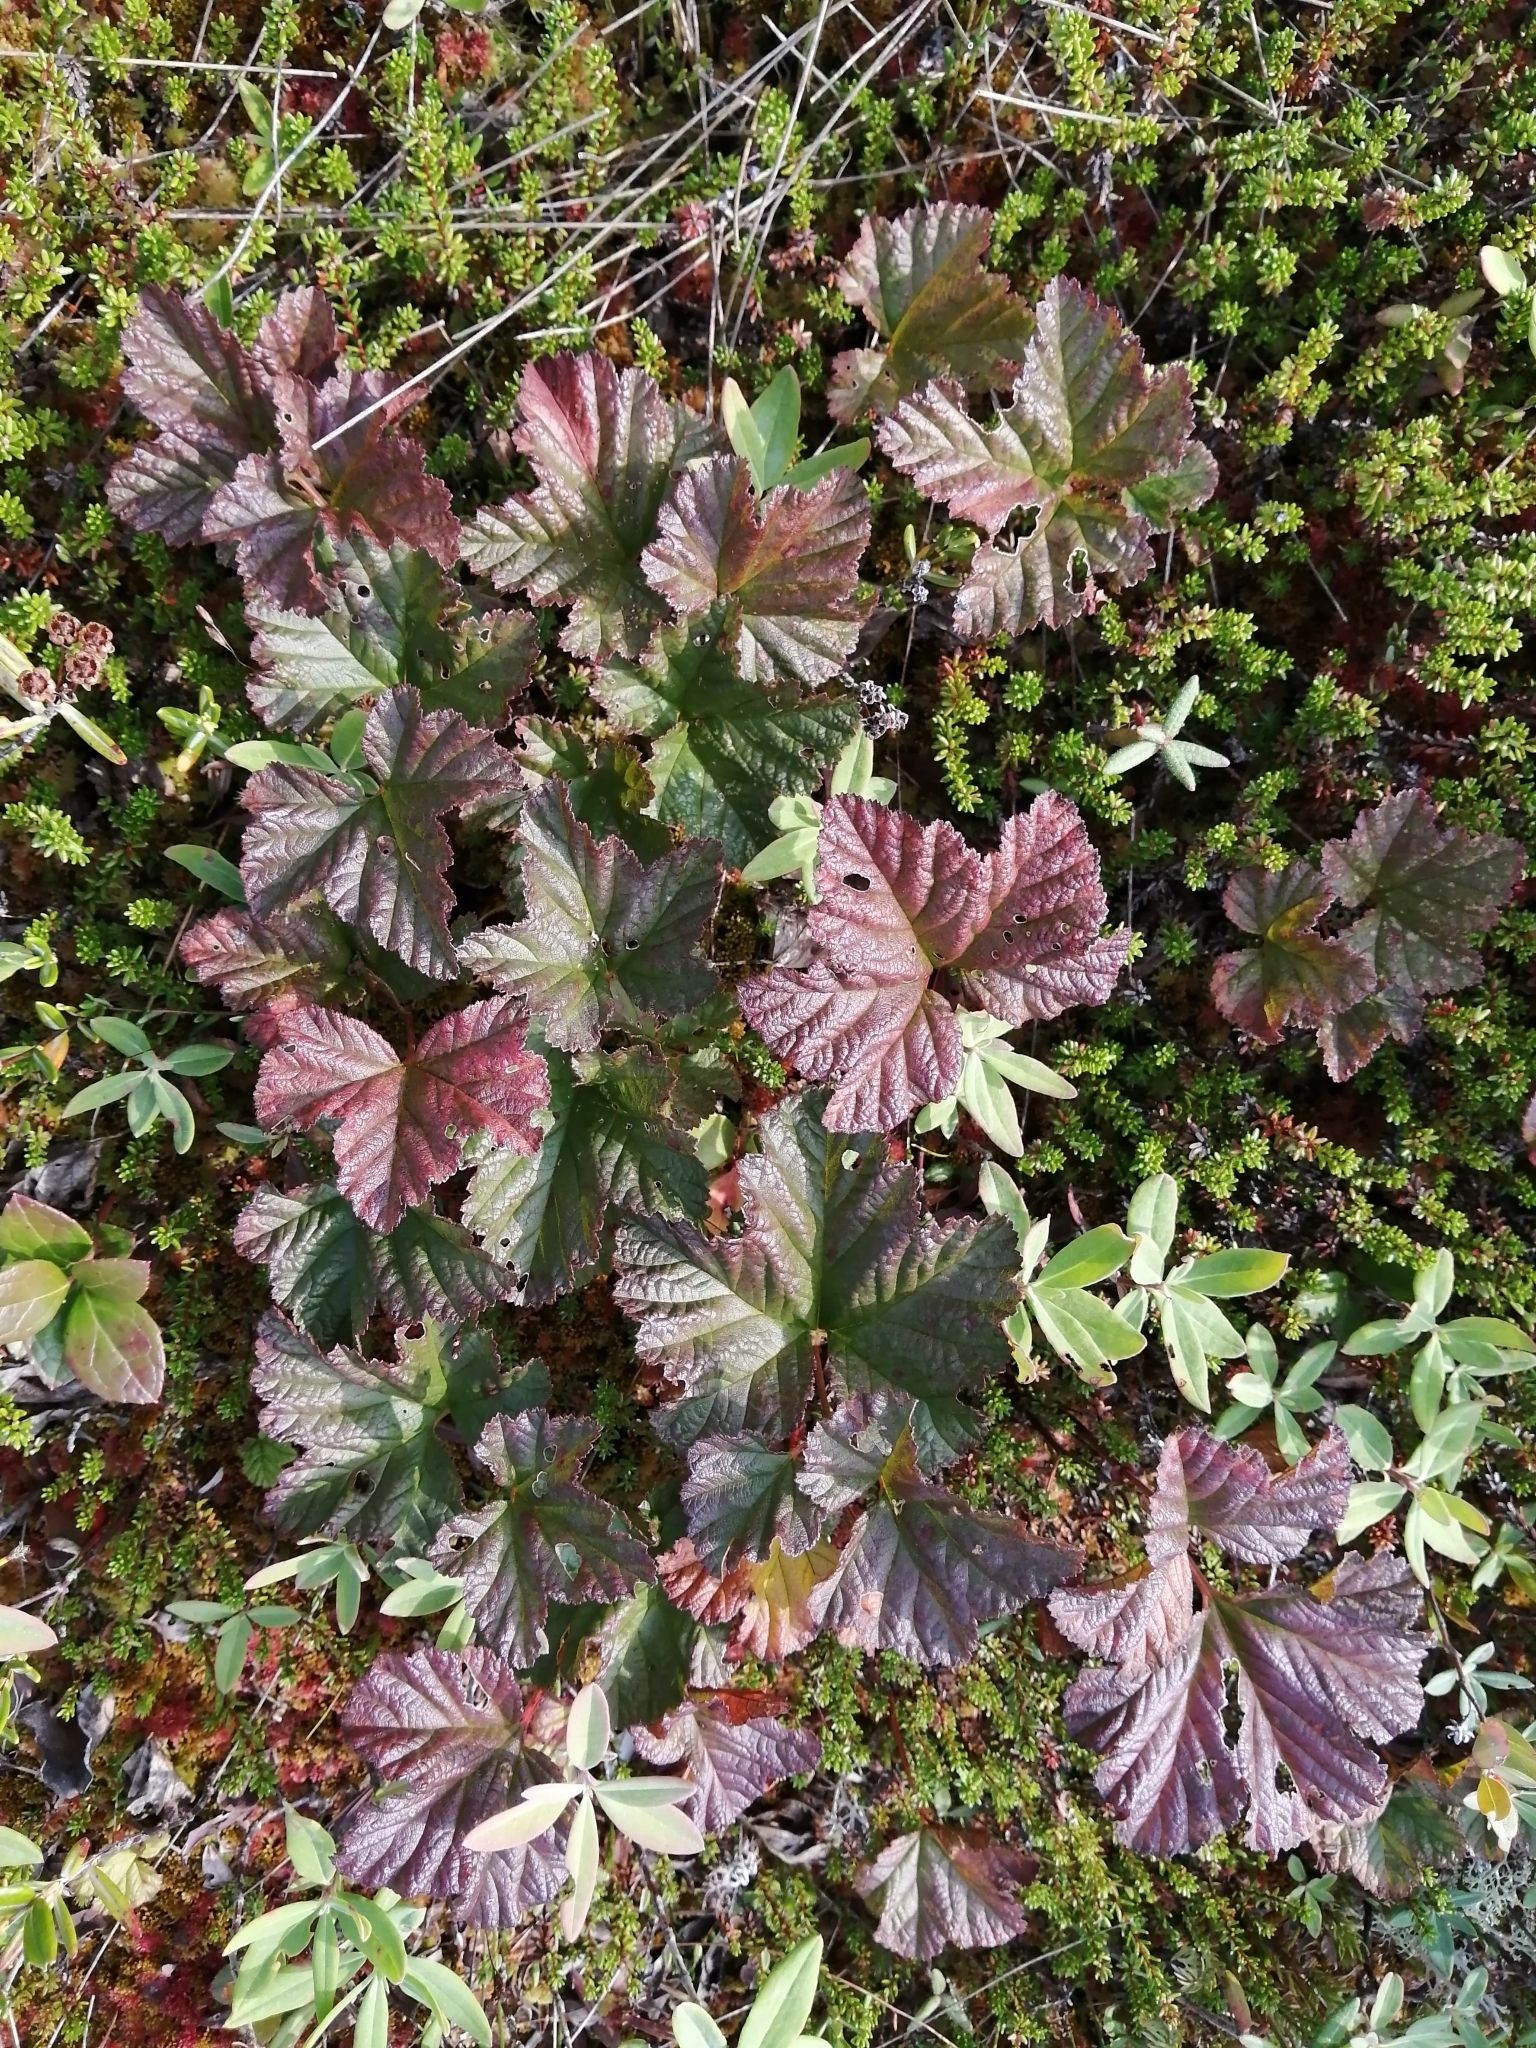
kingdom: Plantae
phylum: Tracheophyta
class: Magnoliopsida
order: Rosales
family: Rosaceae
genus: Rubus
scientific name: Rubus chamaemorus
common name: Cloudberry
